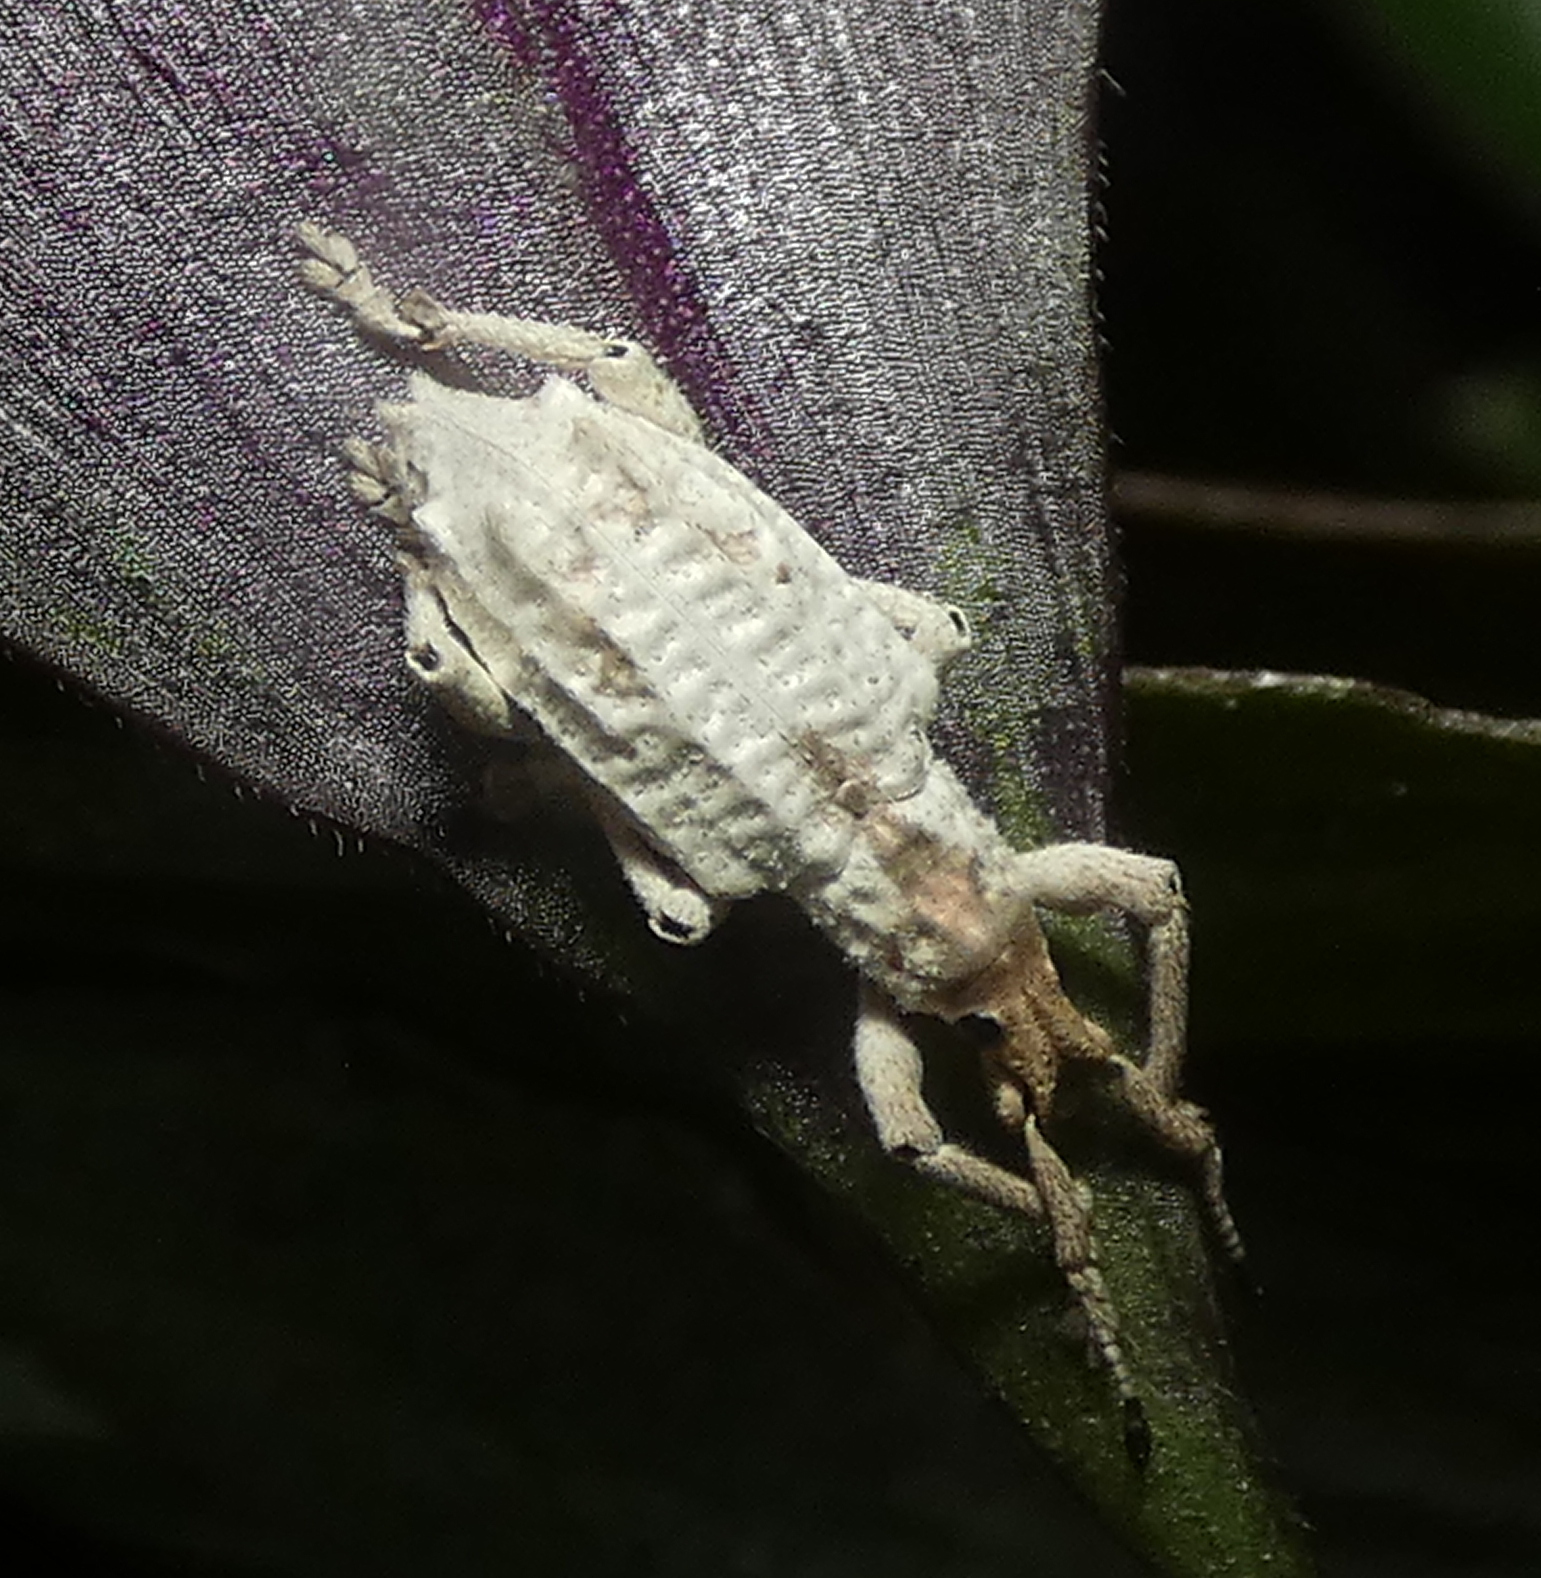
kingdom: Animalia
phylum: Arthropoda
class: Insecta
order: Coleoptera
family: Curculionidae
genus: Compsus
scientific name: Compsus niveus
